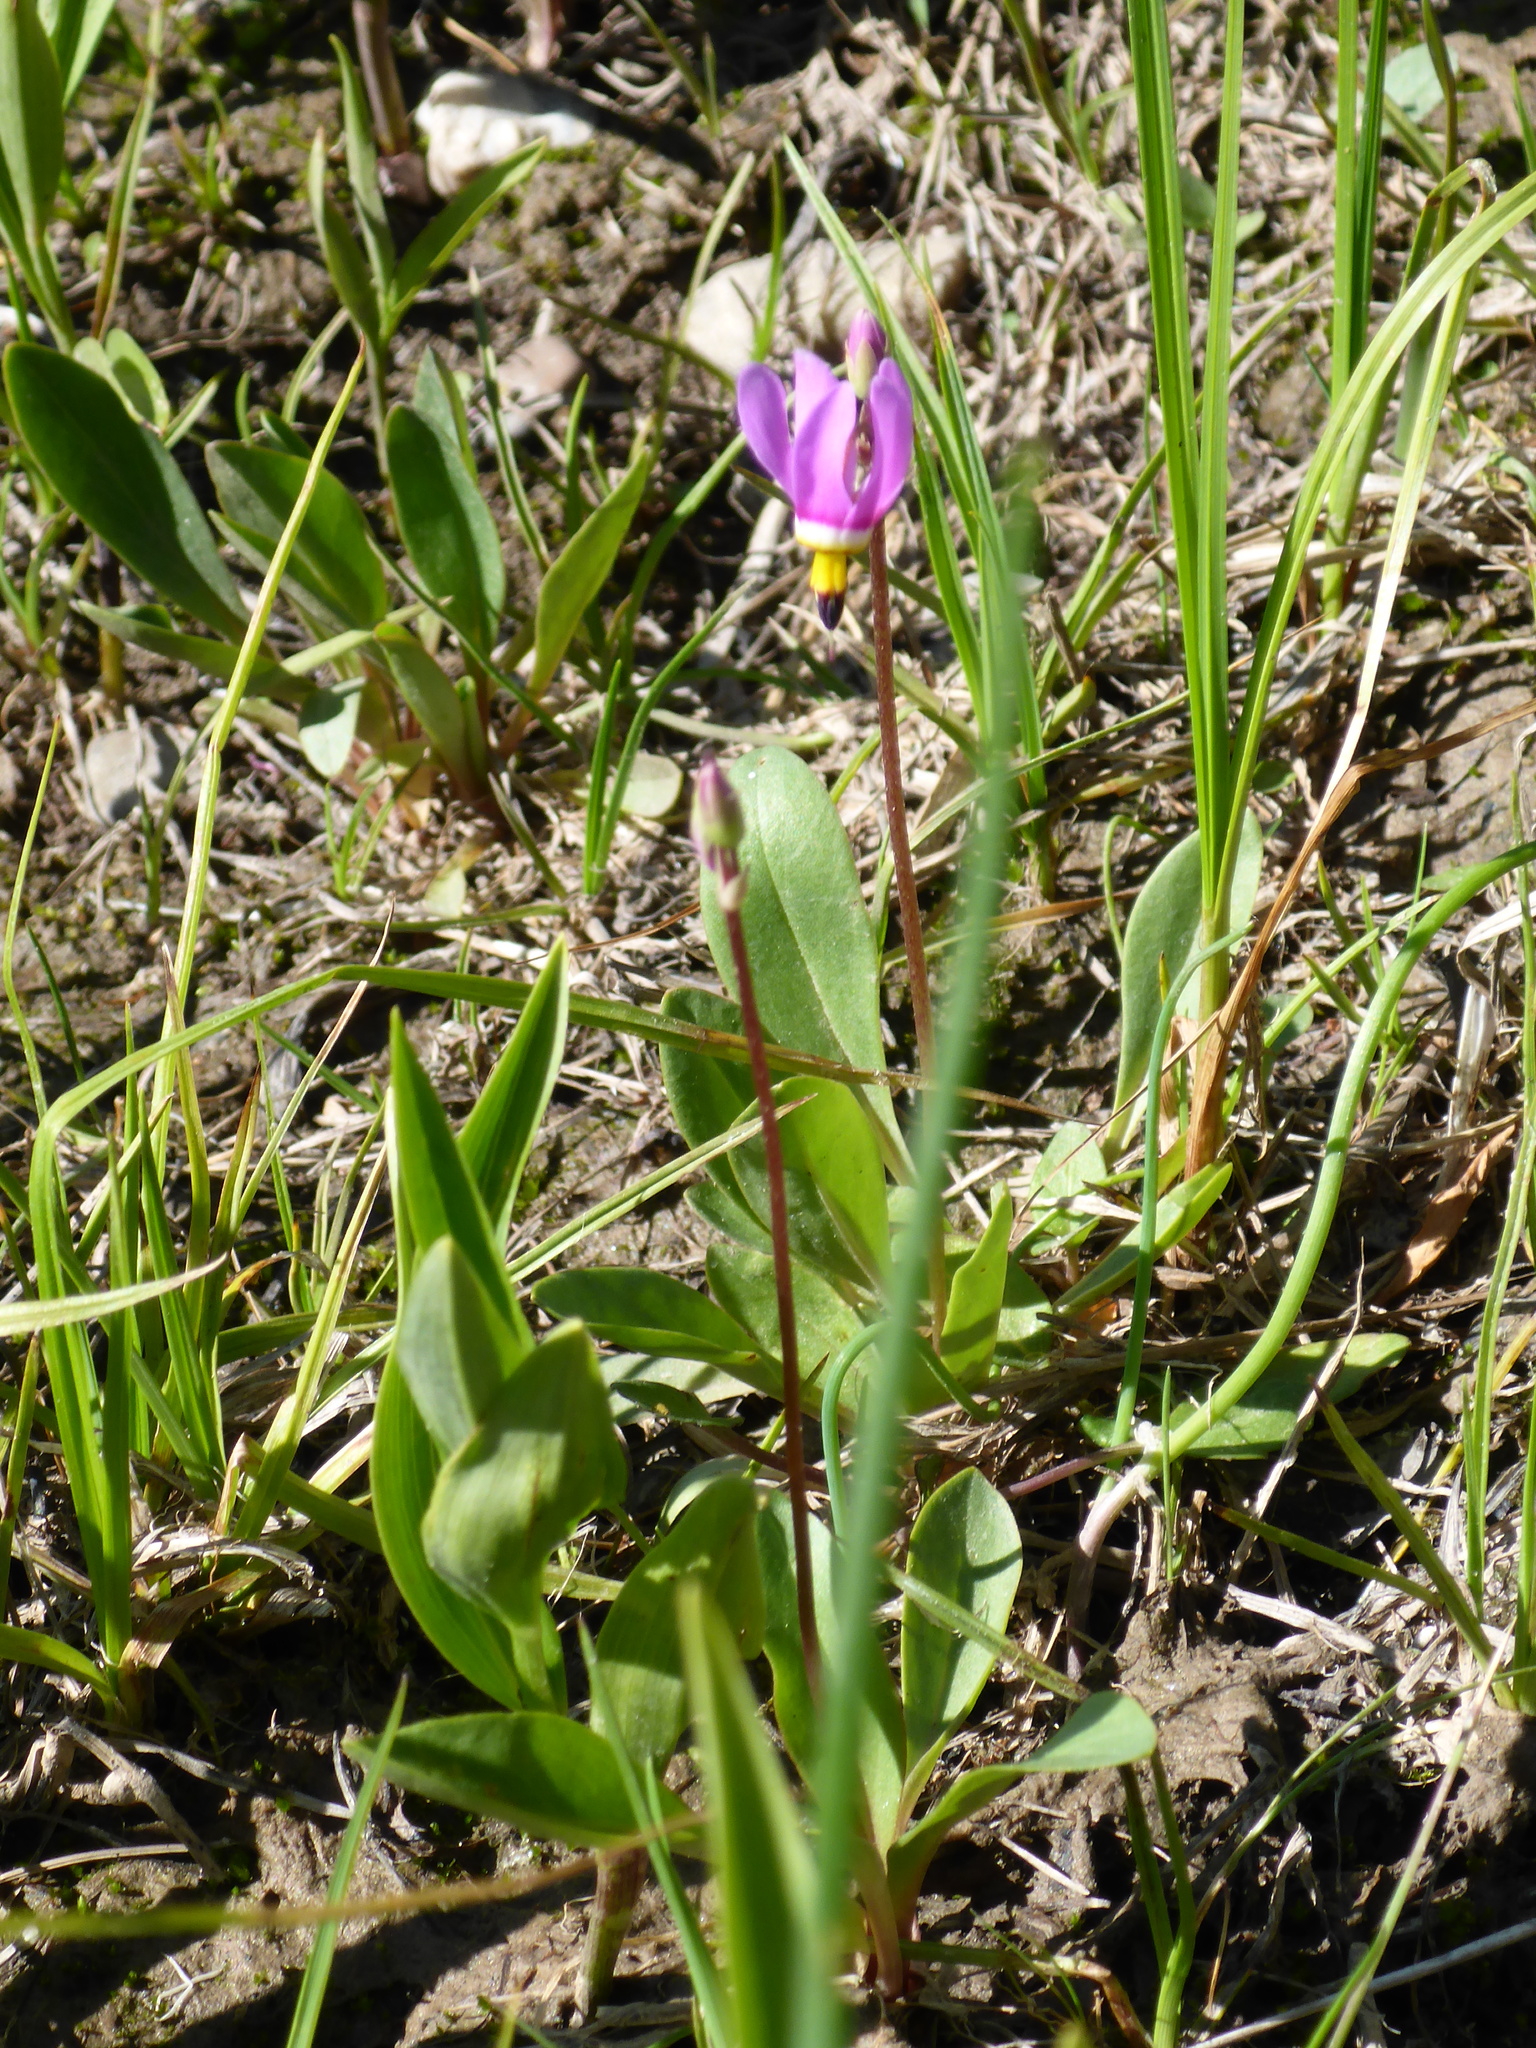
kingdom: Plantae
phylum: Tracheophyta
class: Magnoliopsida
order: Ericales
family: Primulaceae
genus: Dodecatheon
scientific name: Dodecatheon pulchellum
